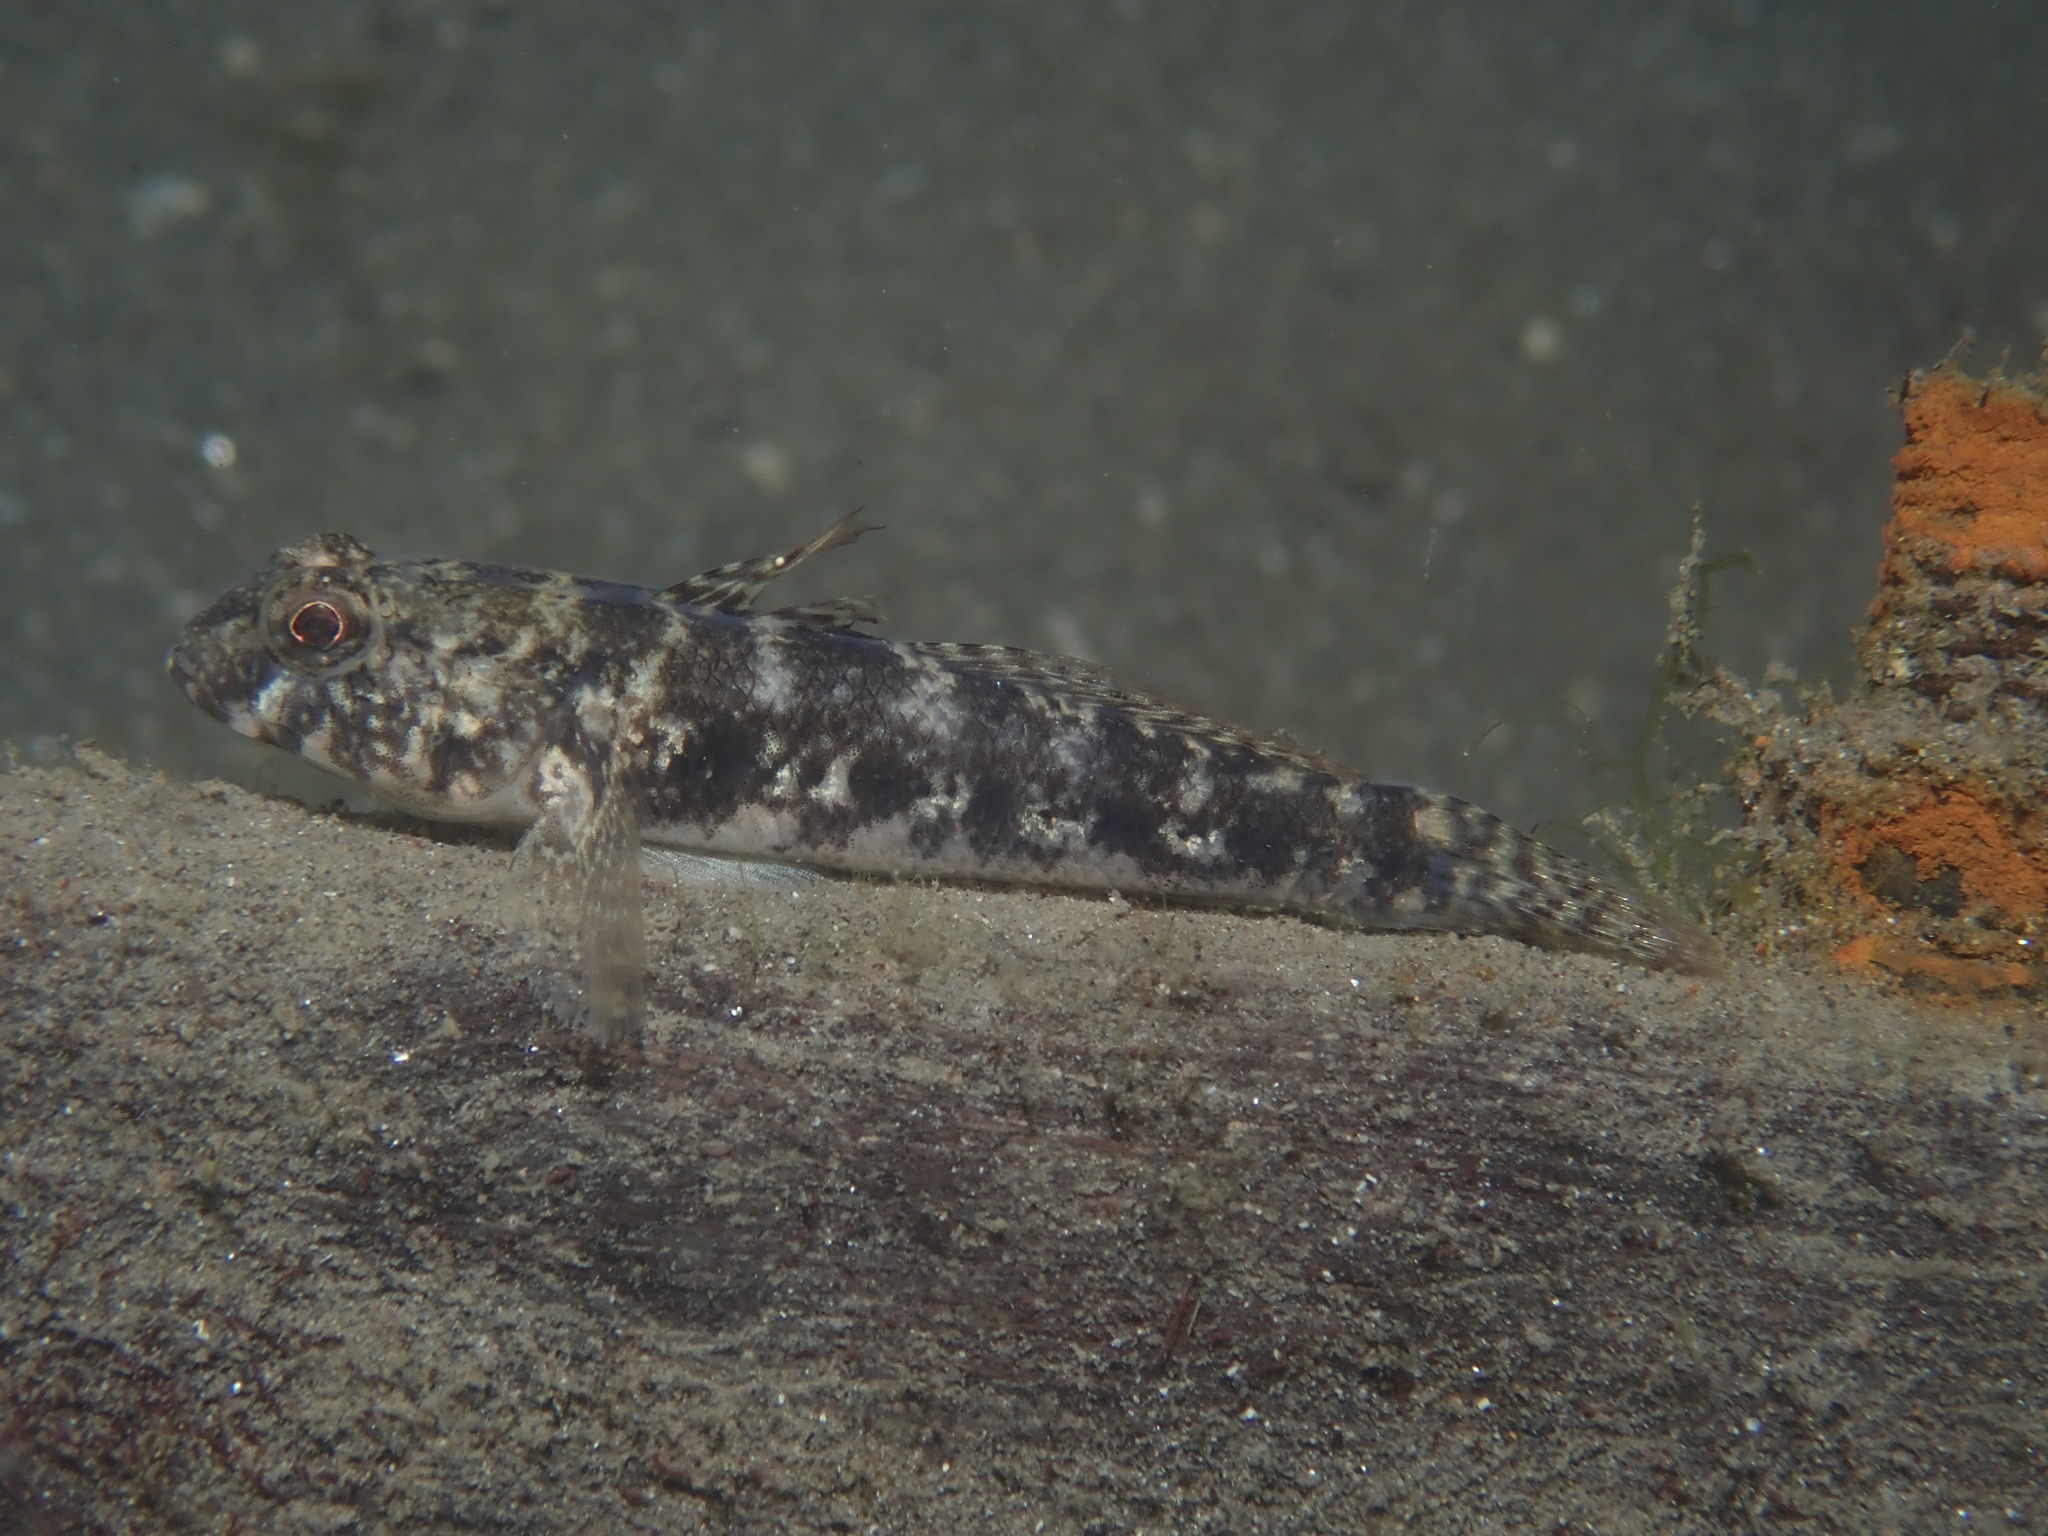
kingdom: Animalia
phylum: Chordata
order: Perciformes
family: Gobiidae
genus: Gobius
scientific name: Gobius niger
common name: Black goby
